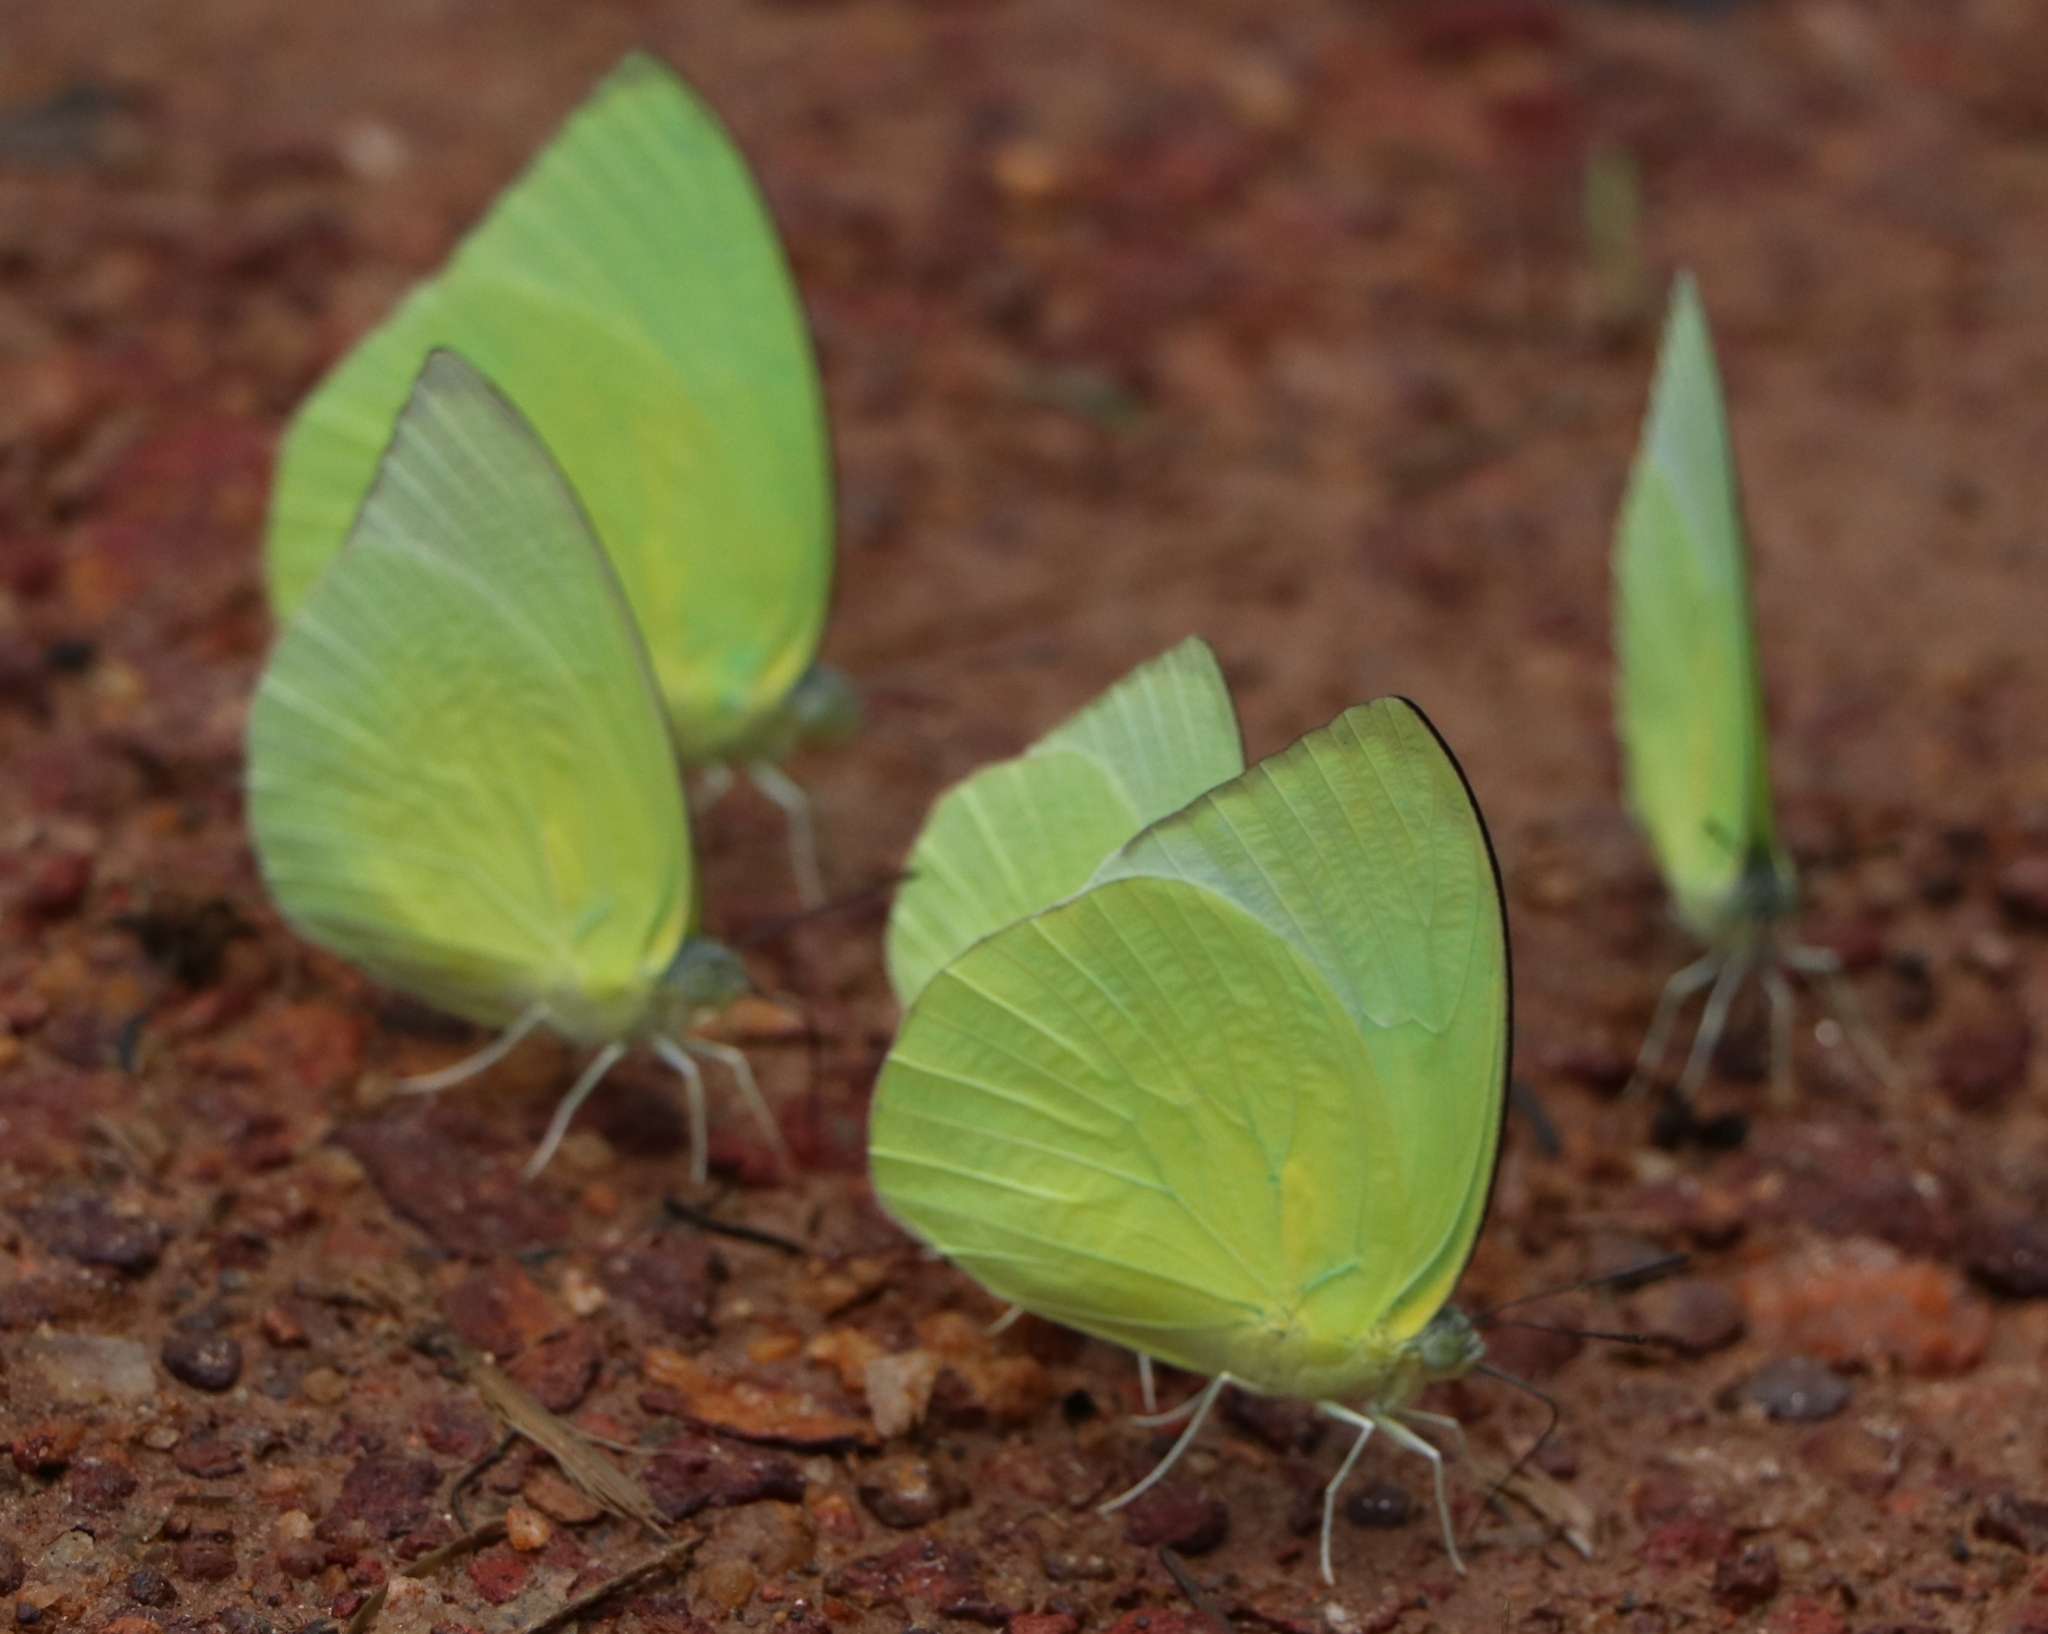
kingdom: Animalia
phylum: Arthropoda
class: Insecta
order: Lepidoptera
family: Pieridae
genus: Catopsilia
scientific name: Catopsilia pomona
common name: Common emigrant
